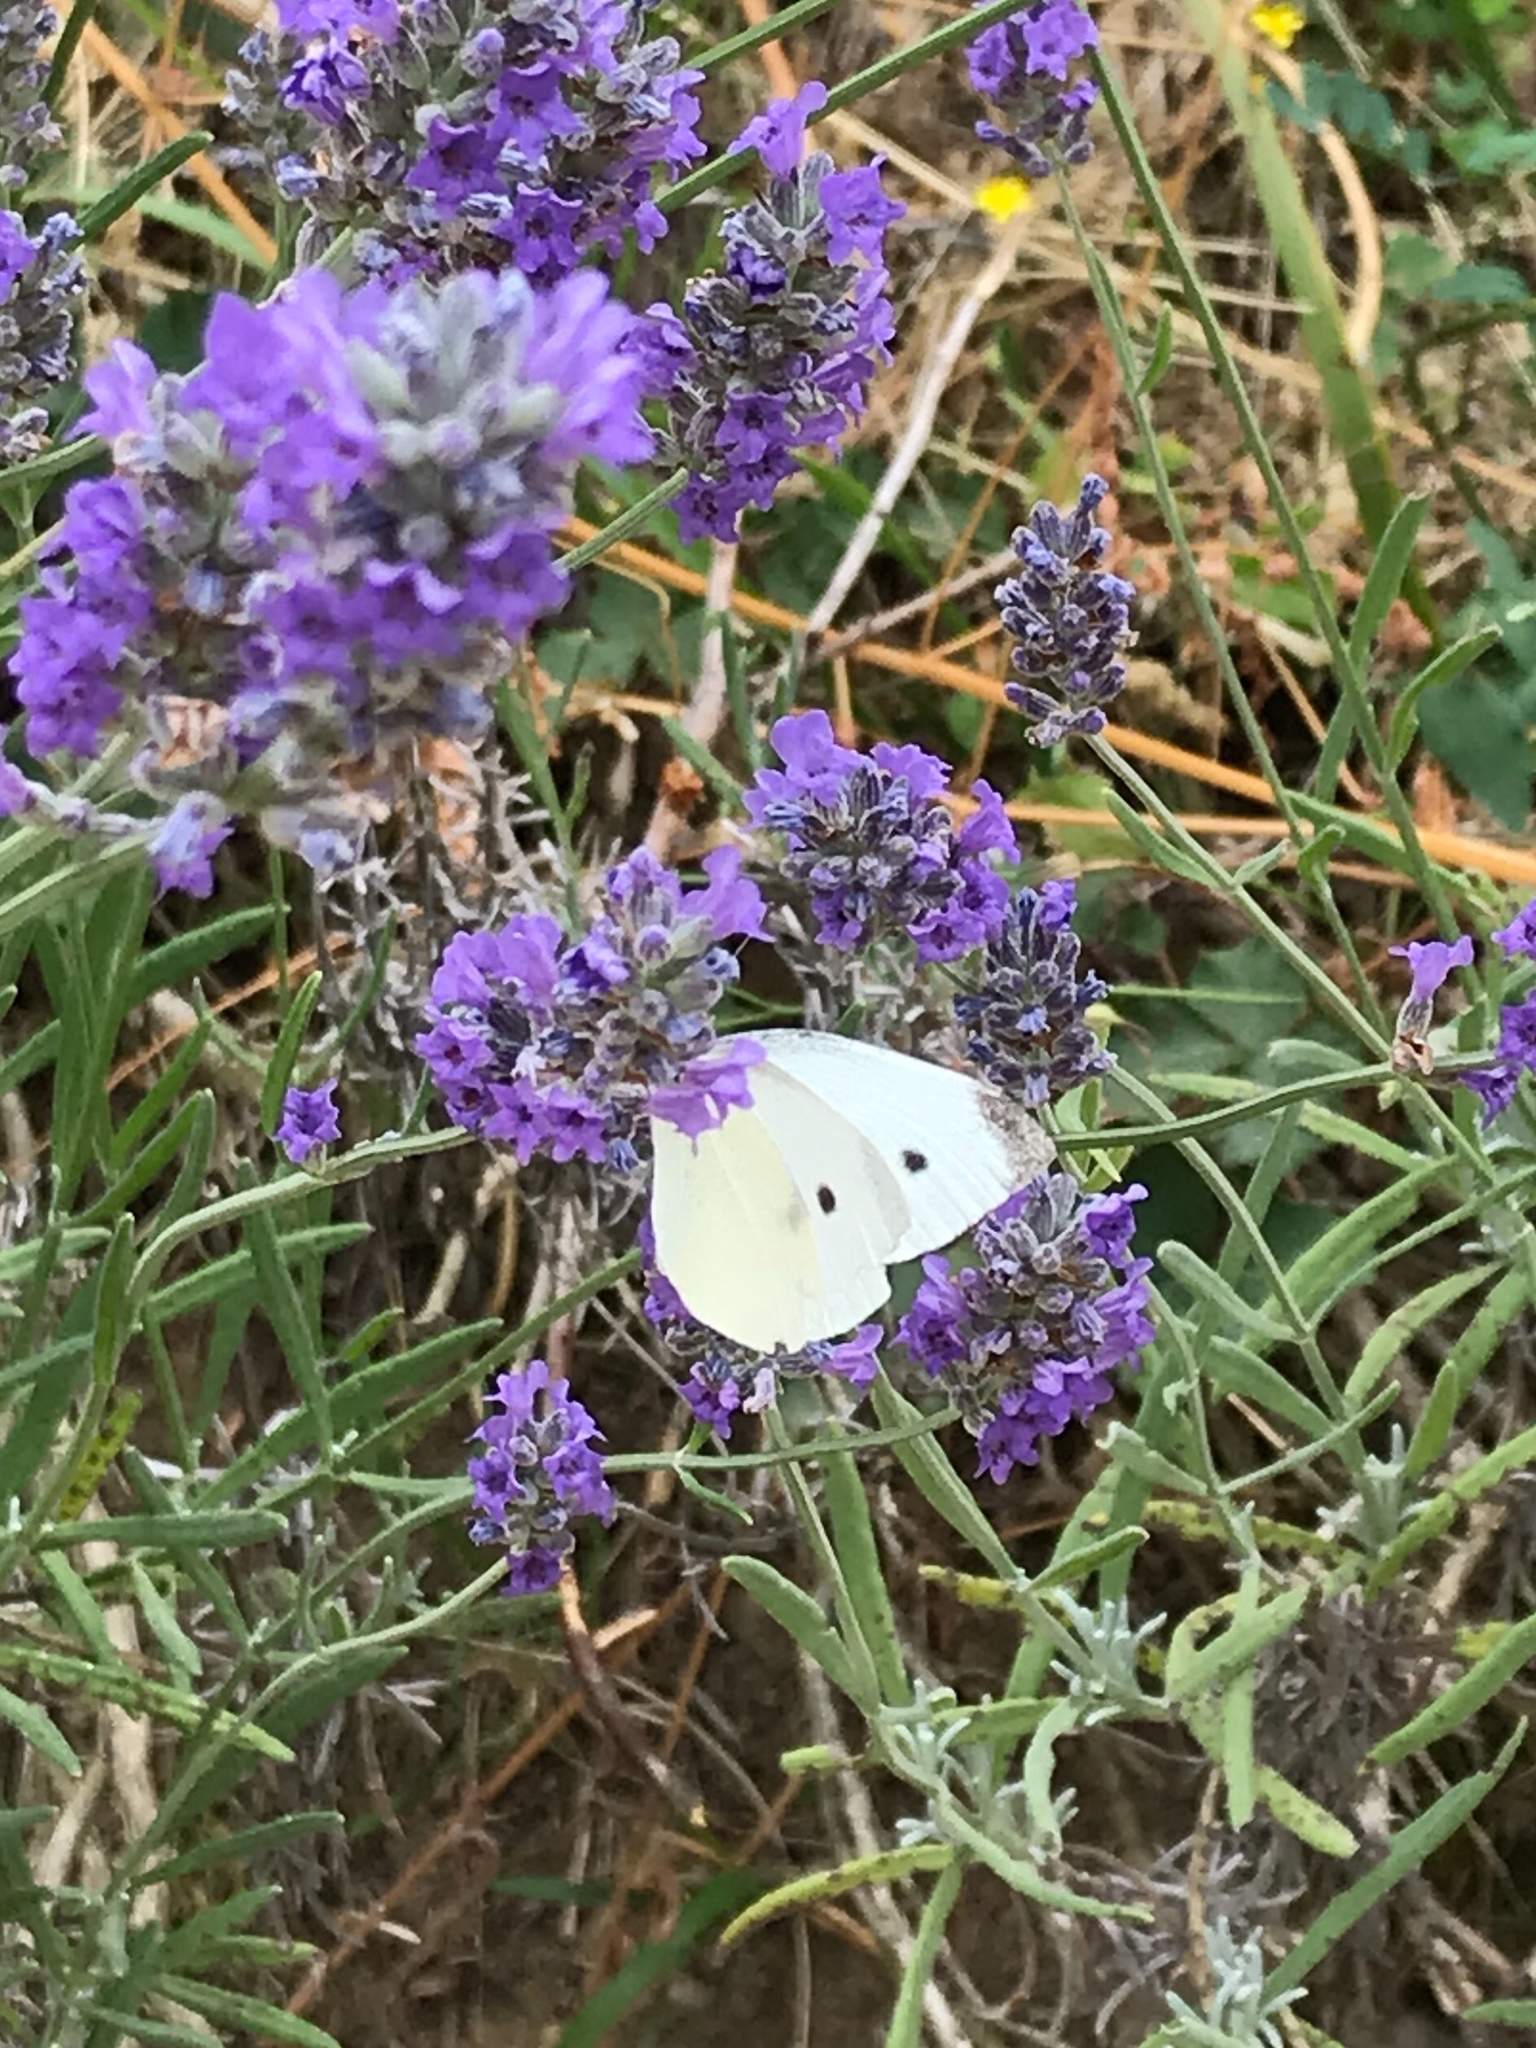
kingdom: Animalia
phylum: Arthropoda
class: Insecta
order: Lepidoptera
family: Pieridae
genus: Pieris
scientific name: Pieris rapae
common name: Small white
